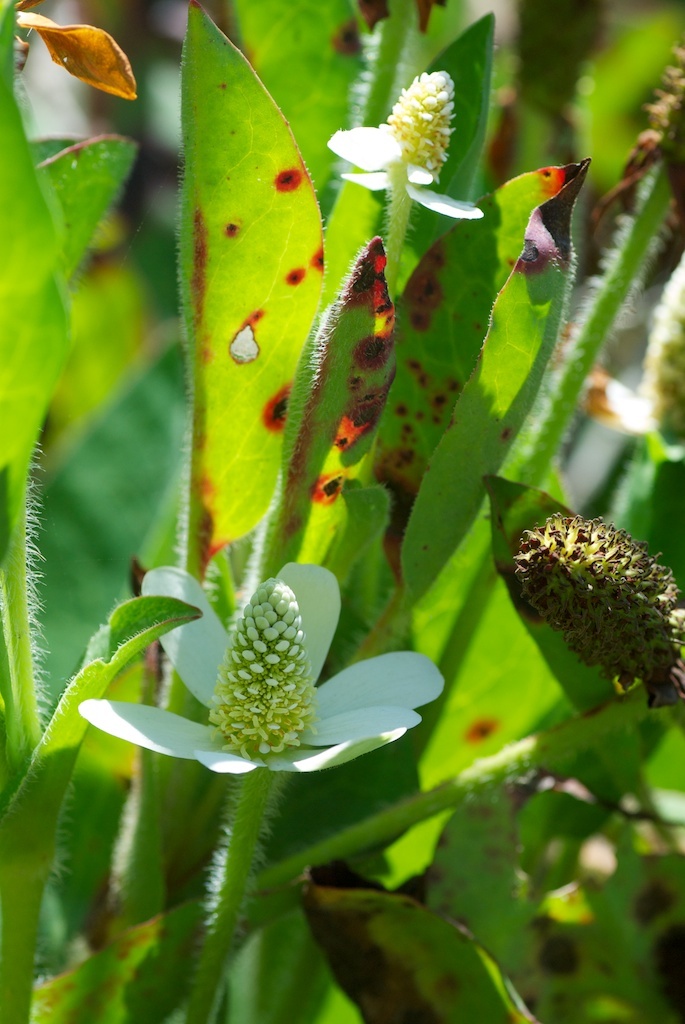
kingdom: Plantae
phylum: Tracheophyta
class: Magnoliopsida
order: Piperales
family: Saururaceae
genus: Anemopsis
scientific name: Anemopsis californica
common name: Apache-beads
